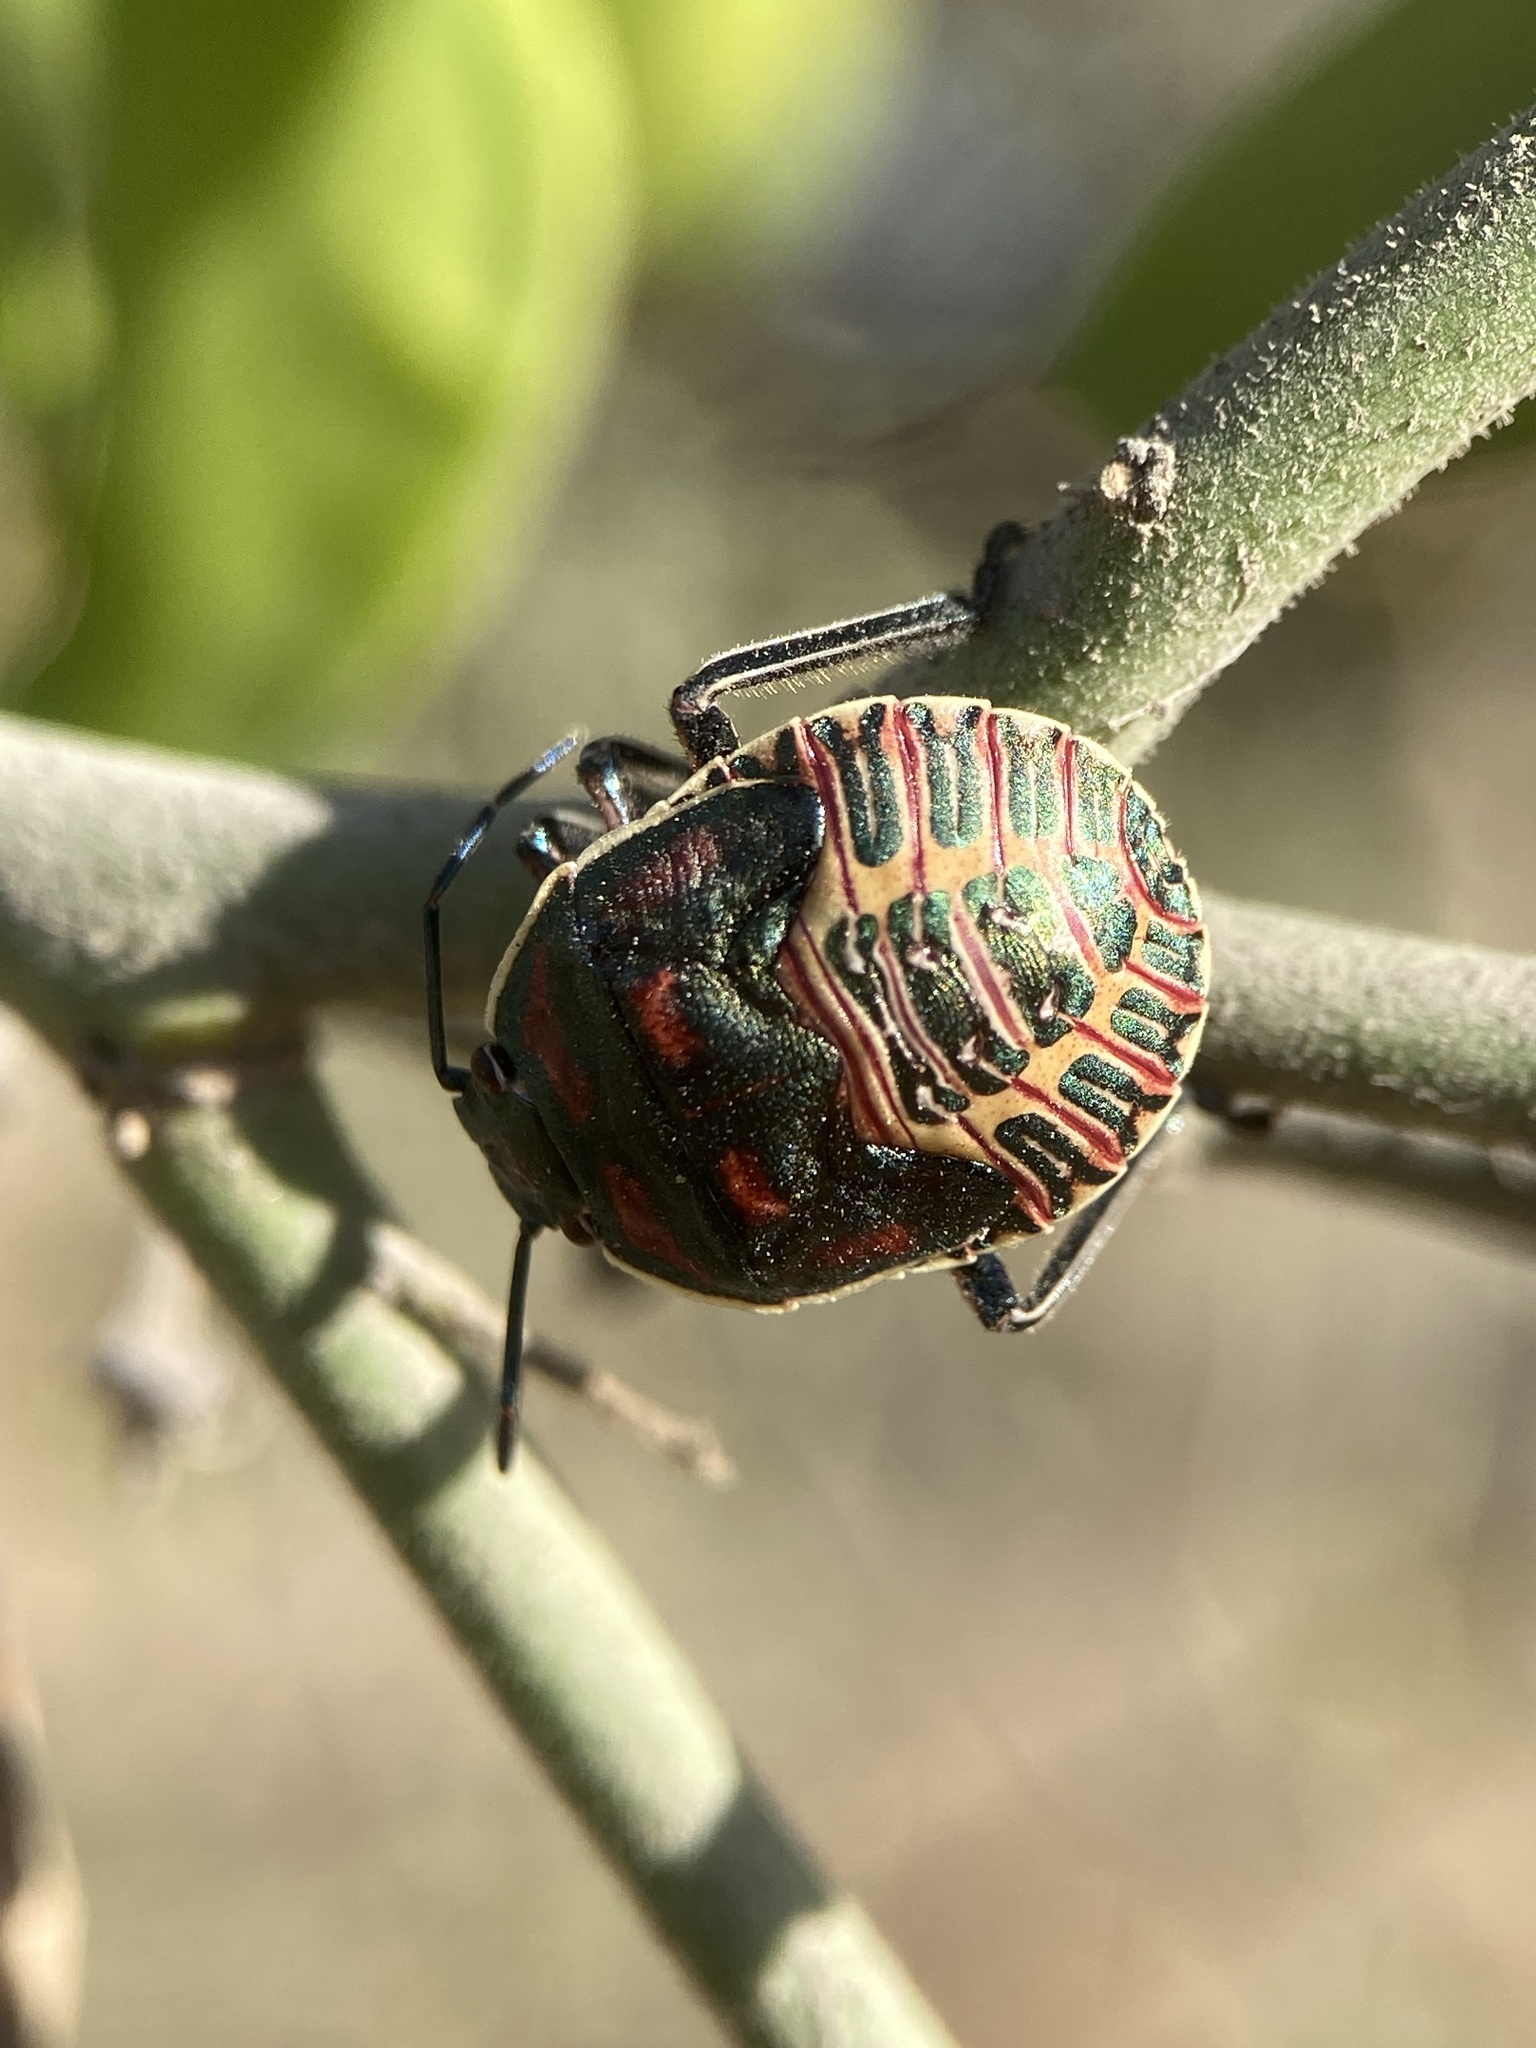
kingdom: Animalia
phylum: Arthropoda
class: Insecta
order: Hemiptera
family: Pentatomidae
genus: Pellaea
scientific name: Pellaea stictica
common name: Stink bug
